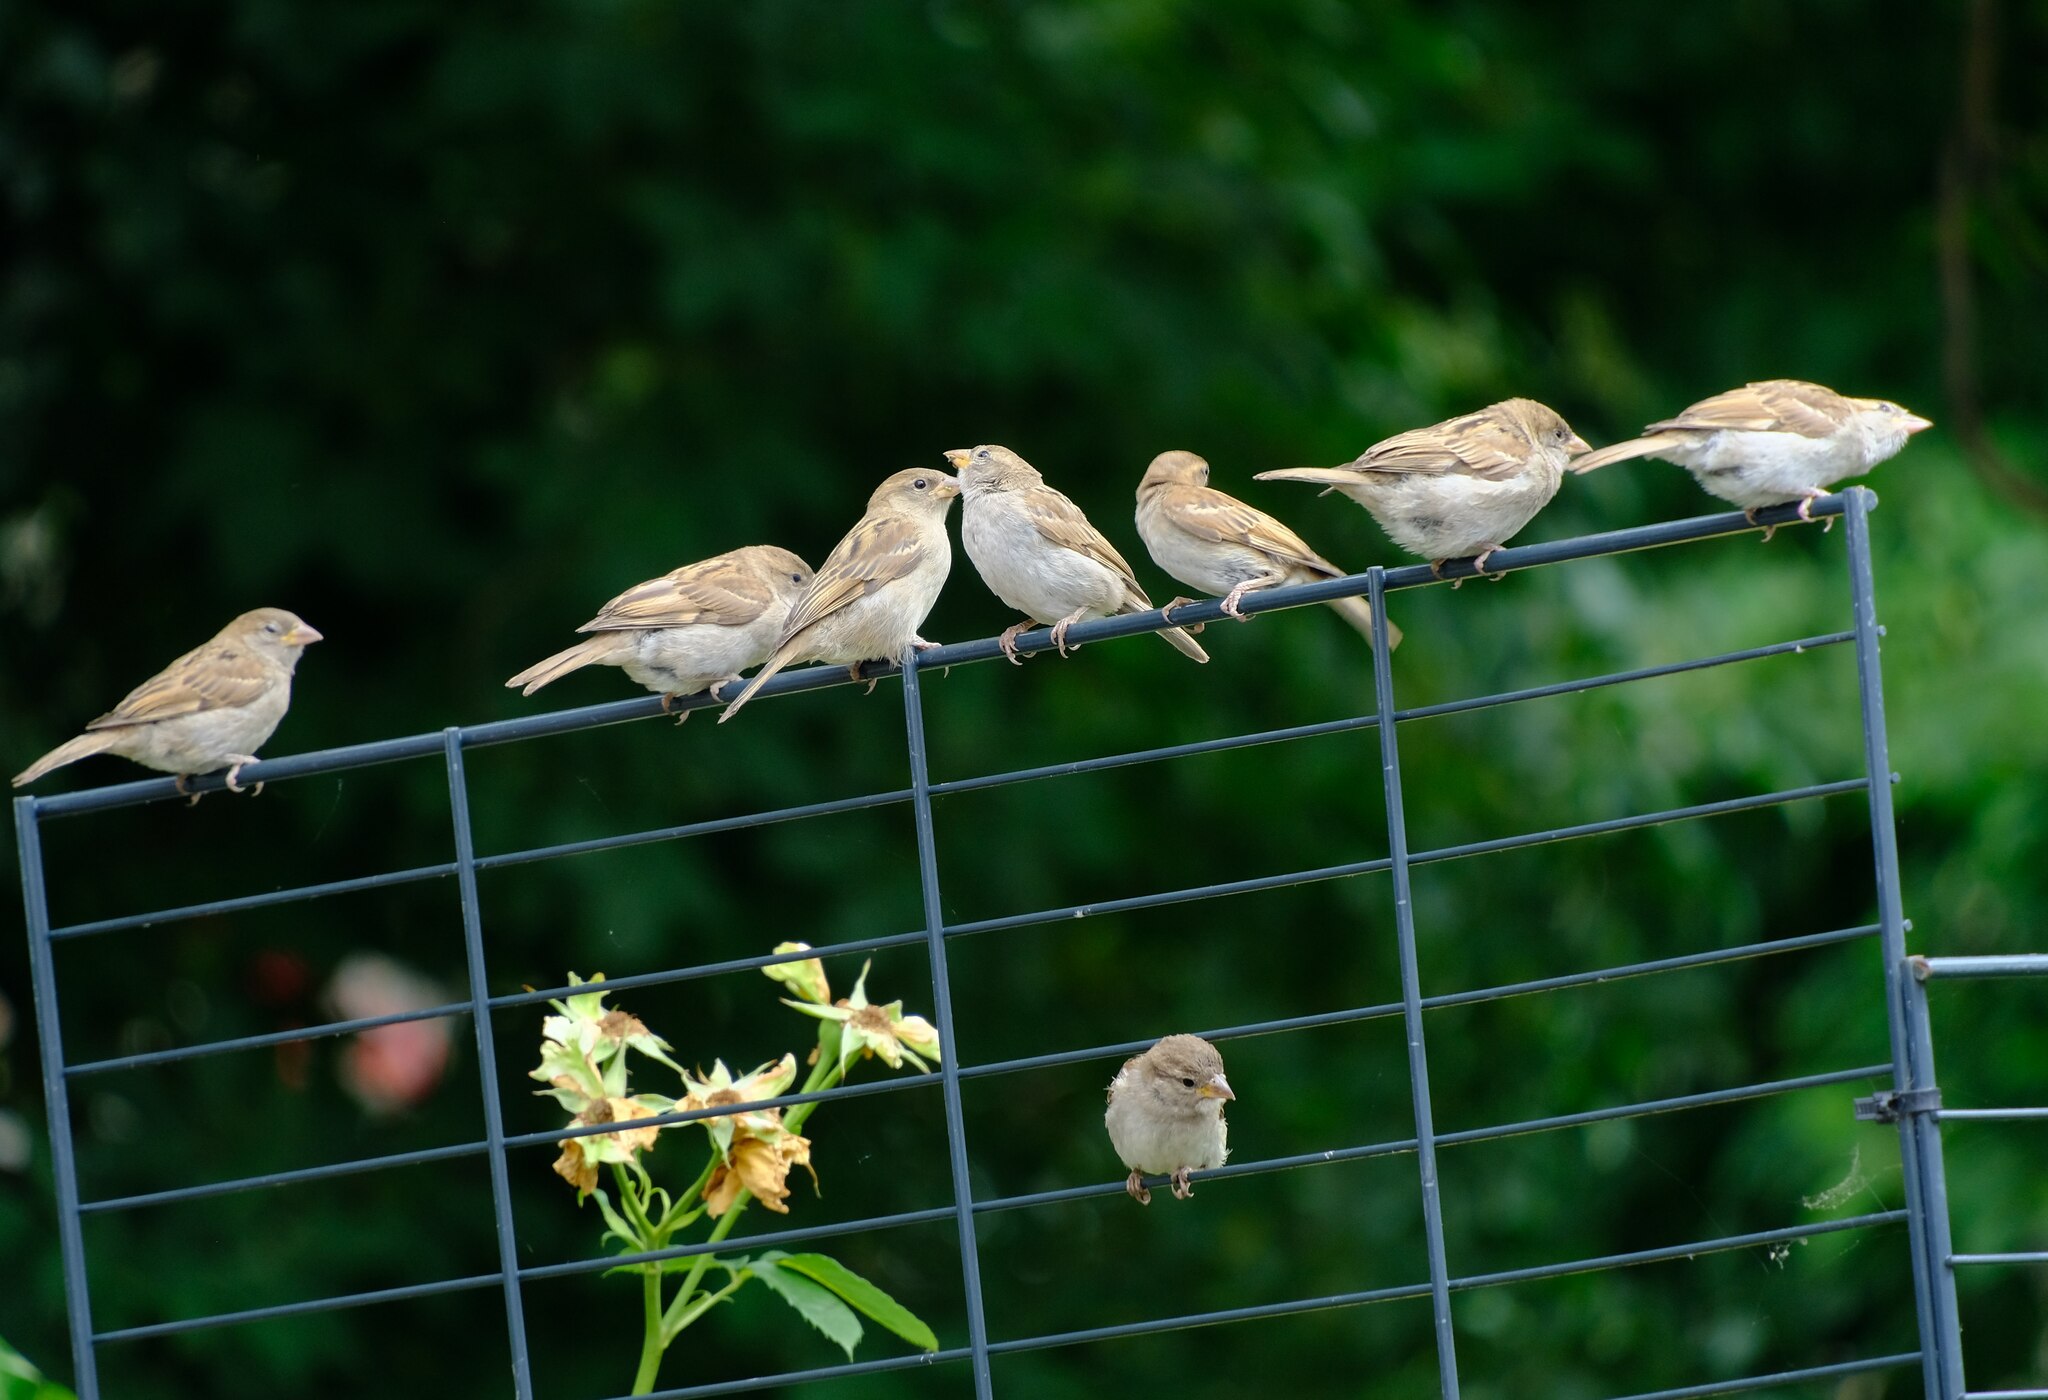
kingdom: Animalia
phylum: Chordata
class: Aves
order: Passeriformes
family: Passeridae
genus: Passer
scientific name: Passer domesticus
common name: House sparrow
